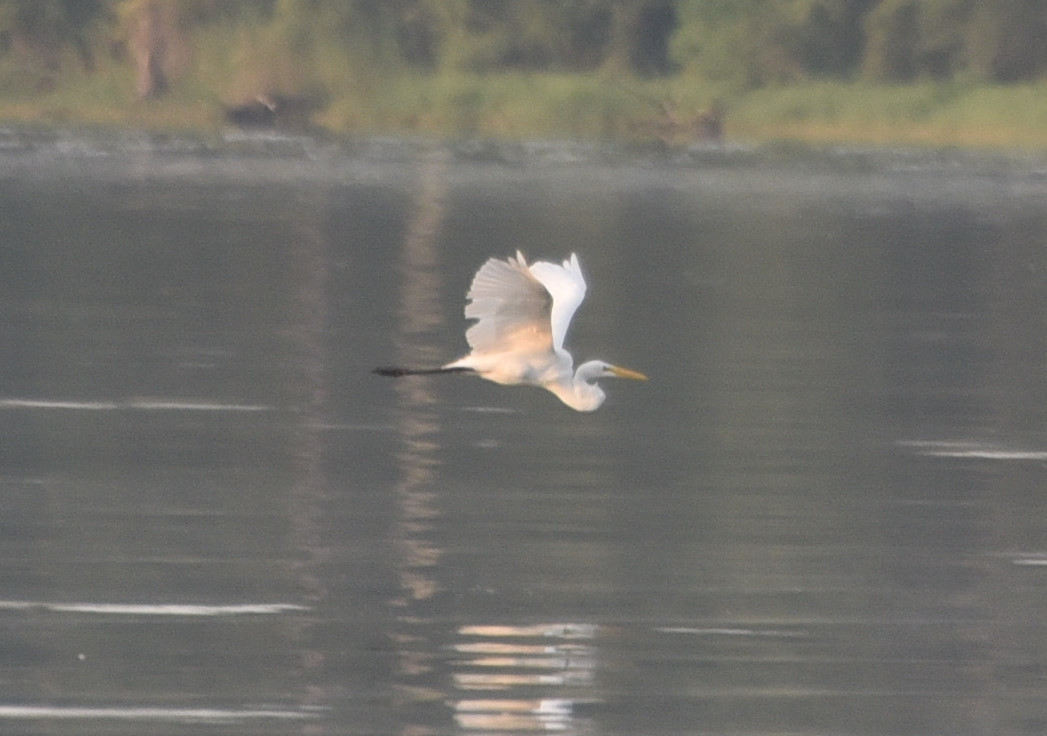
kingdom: Animalia
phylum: Chordata
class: Aves
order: Pelecaniformes
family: Ardeidae
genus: Ardea
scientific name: Ardea alba
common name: Great egret
